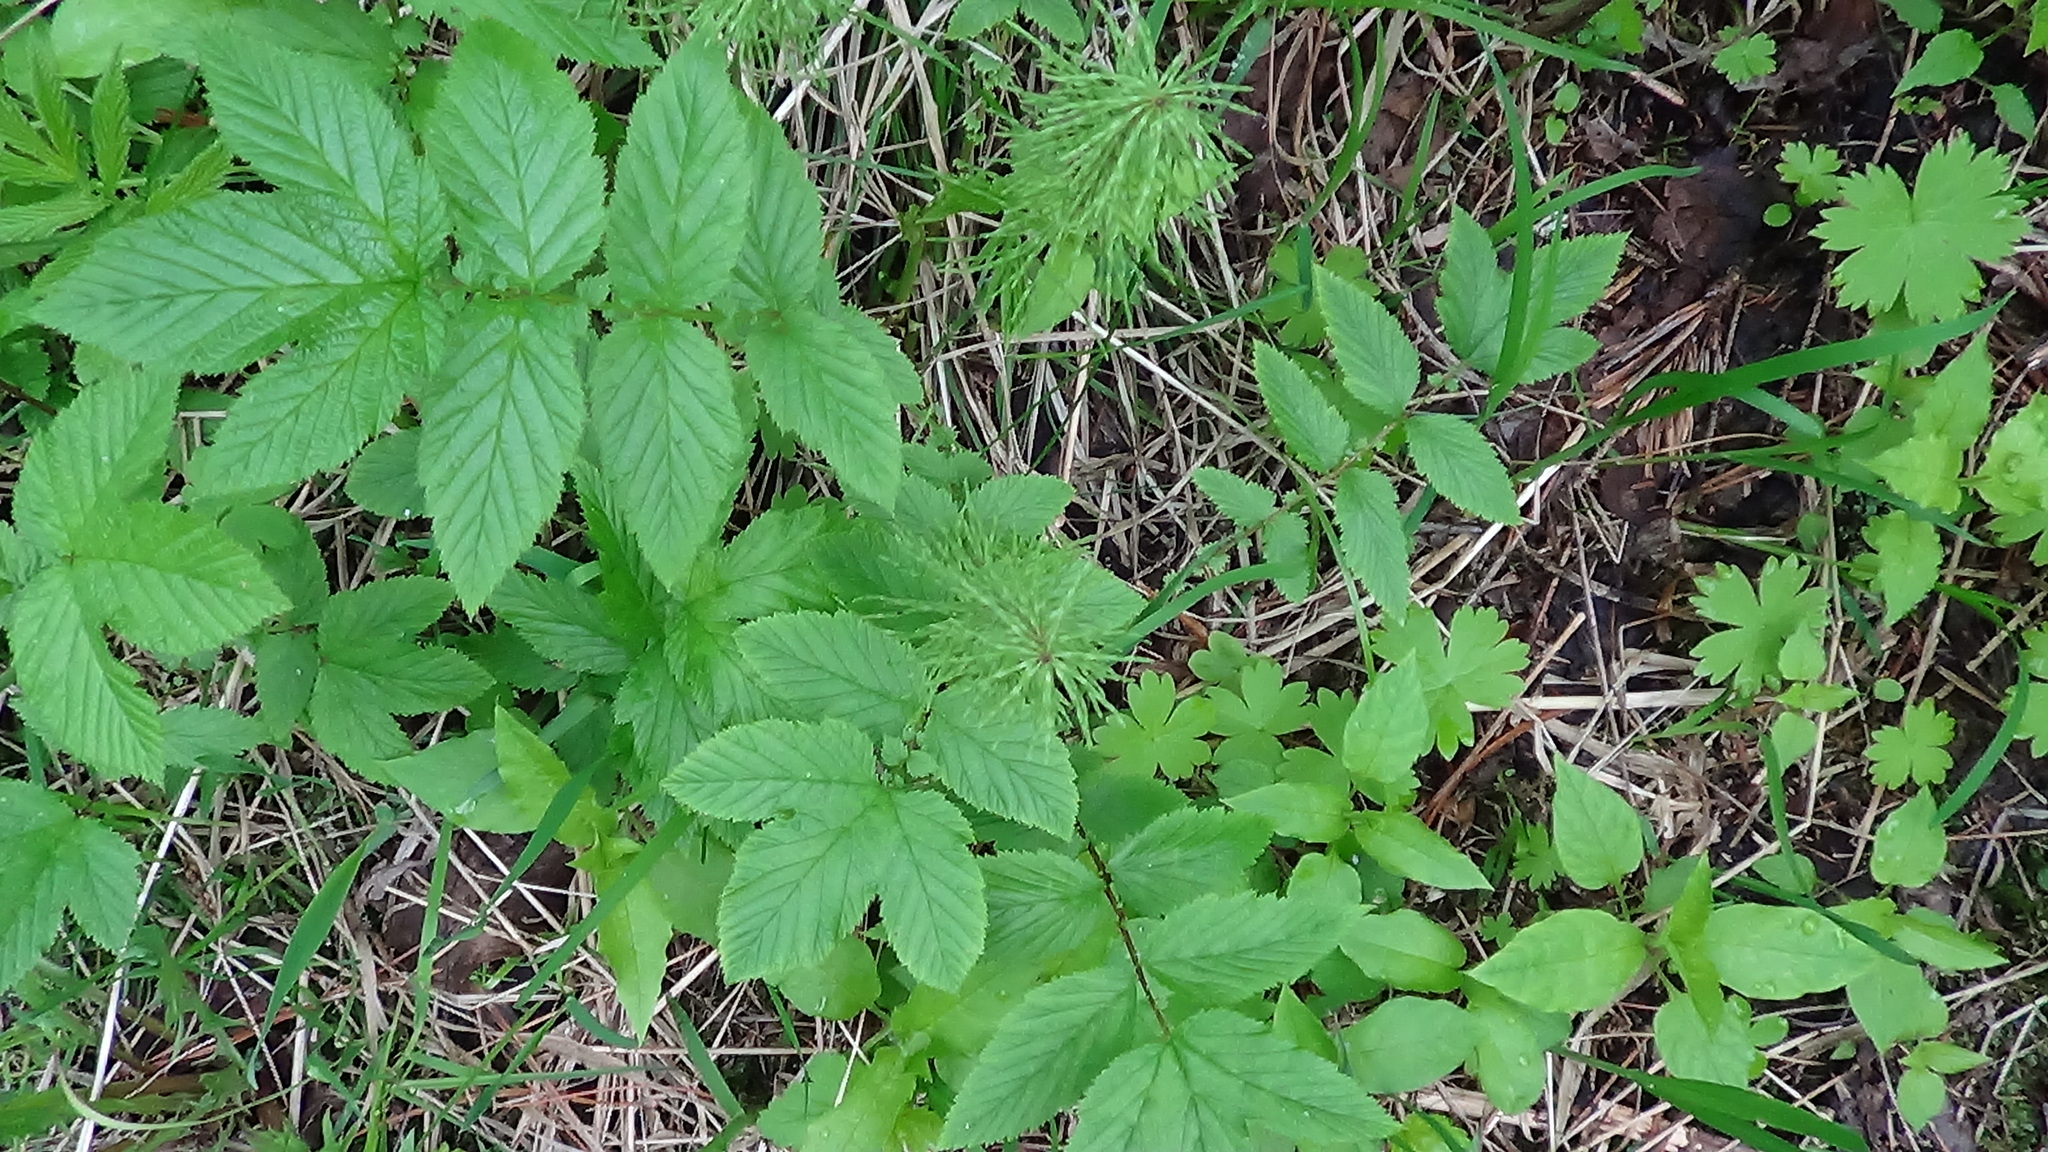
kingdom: Plantae
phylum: Tracheophyta
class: Magnoliopsida
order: Rosales
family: Rosaceae
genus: Filipendula
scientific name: Filipendula ulmaria
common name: Meadowsweet
